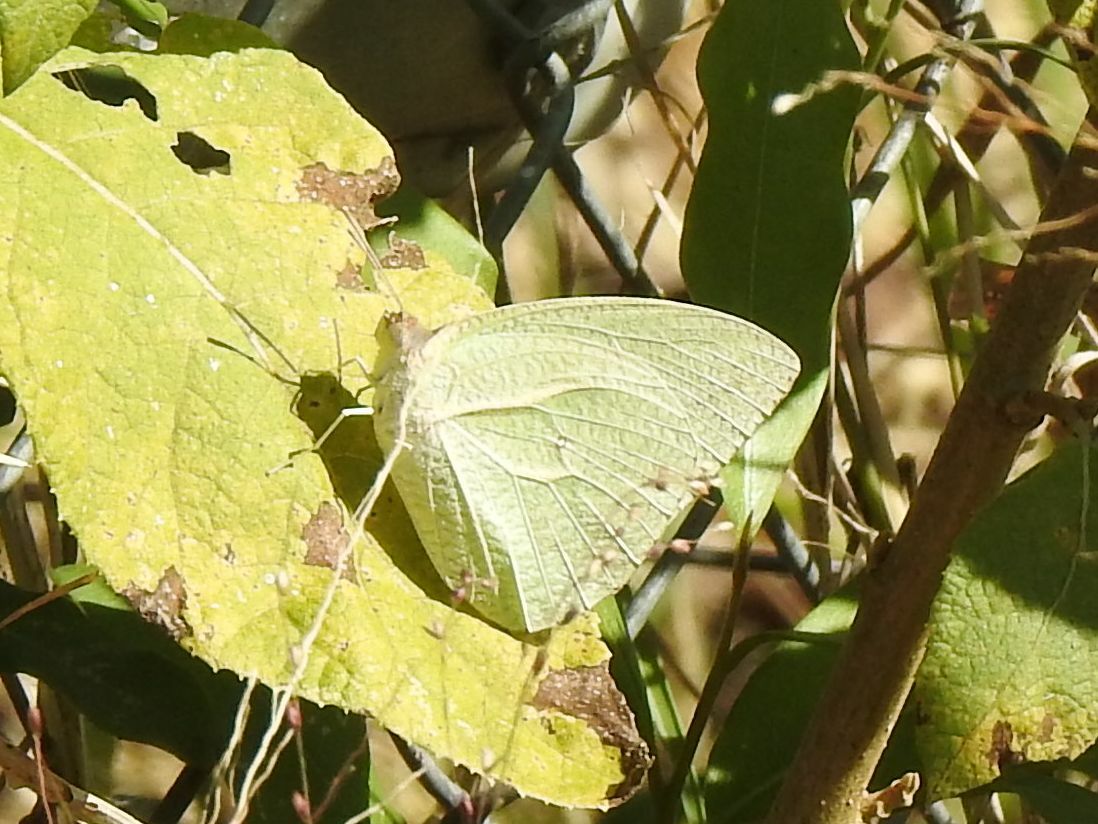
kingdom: Animalia
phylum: Arthropoda
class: Insecta
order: Lepidoptera
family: Pieridae
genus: Catopsilia
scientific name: Catopsilia florella
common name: African migrant
